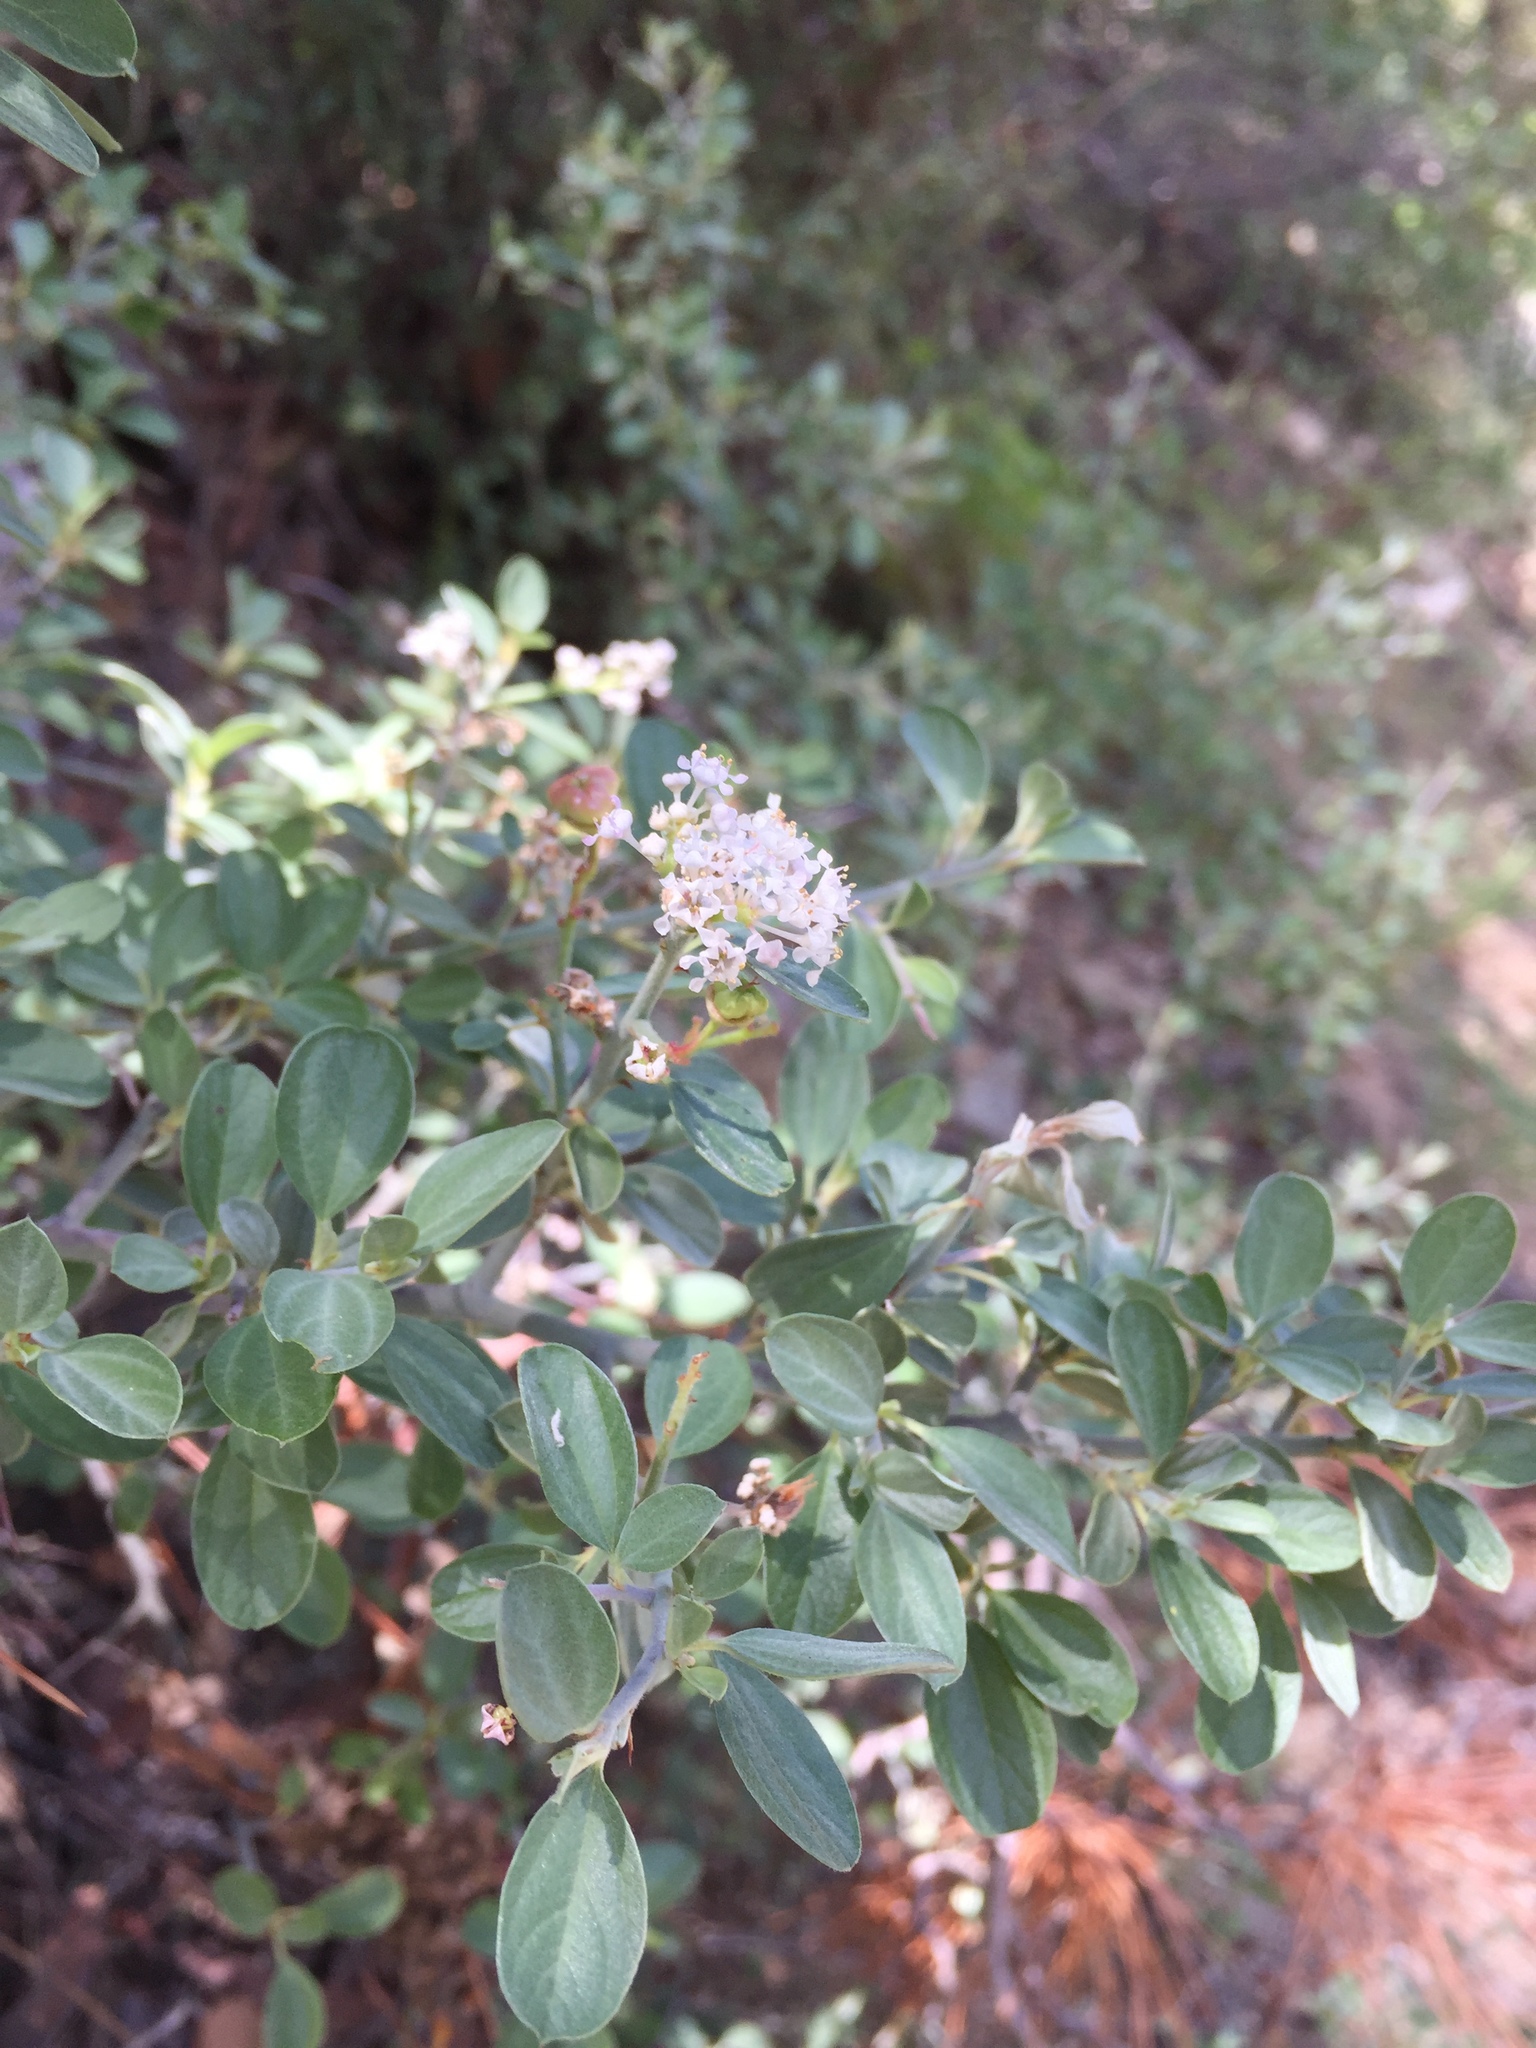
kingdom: Plantae
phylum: Tracheophyta
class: Magnoliopsida
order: Rosales
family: Rhamnaceae
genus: Ceanothus
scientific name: Ceanothus fendleri
